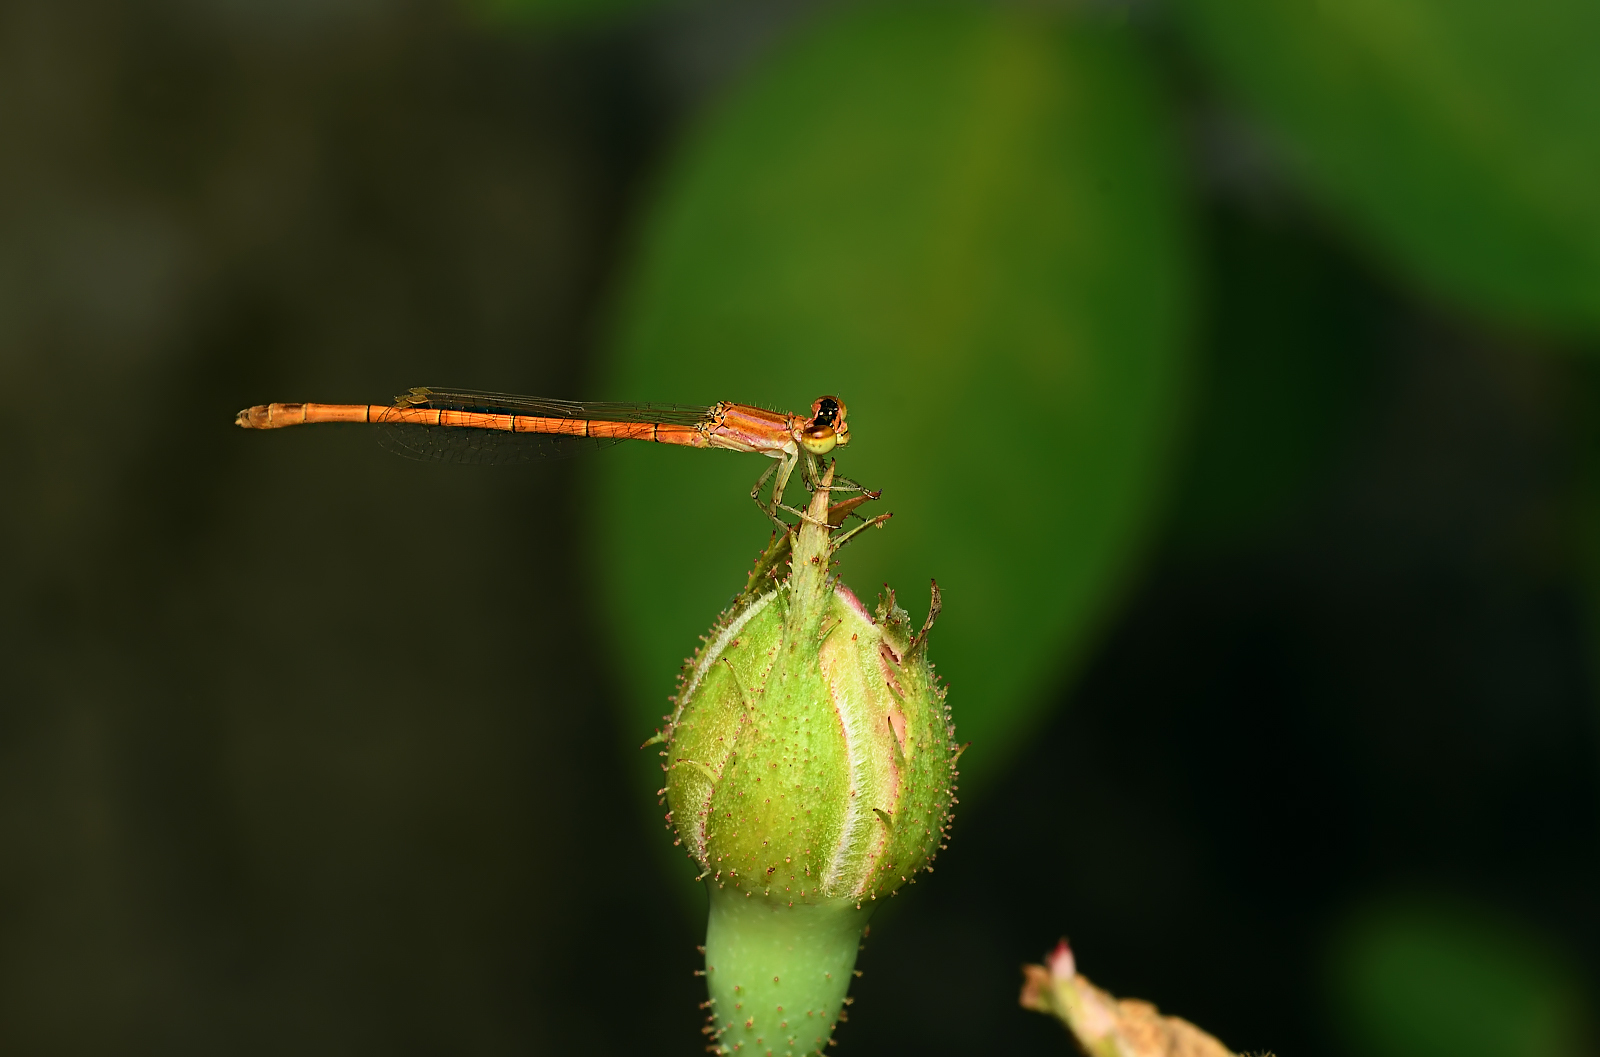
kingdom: Animalia
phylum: Arthropoda
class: Insecta
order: Odonata
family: Coenagrionidae
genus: Agriocnemis
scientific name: Agriocnemis pieris
